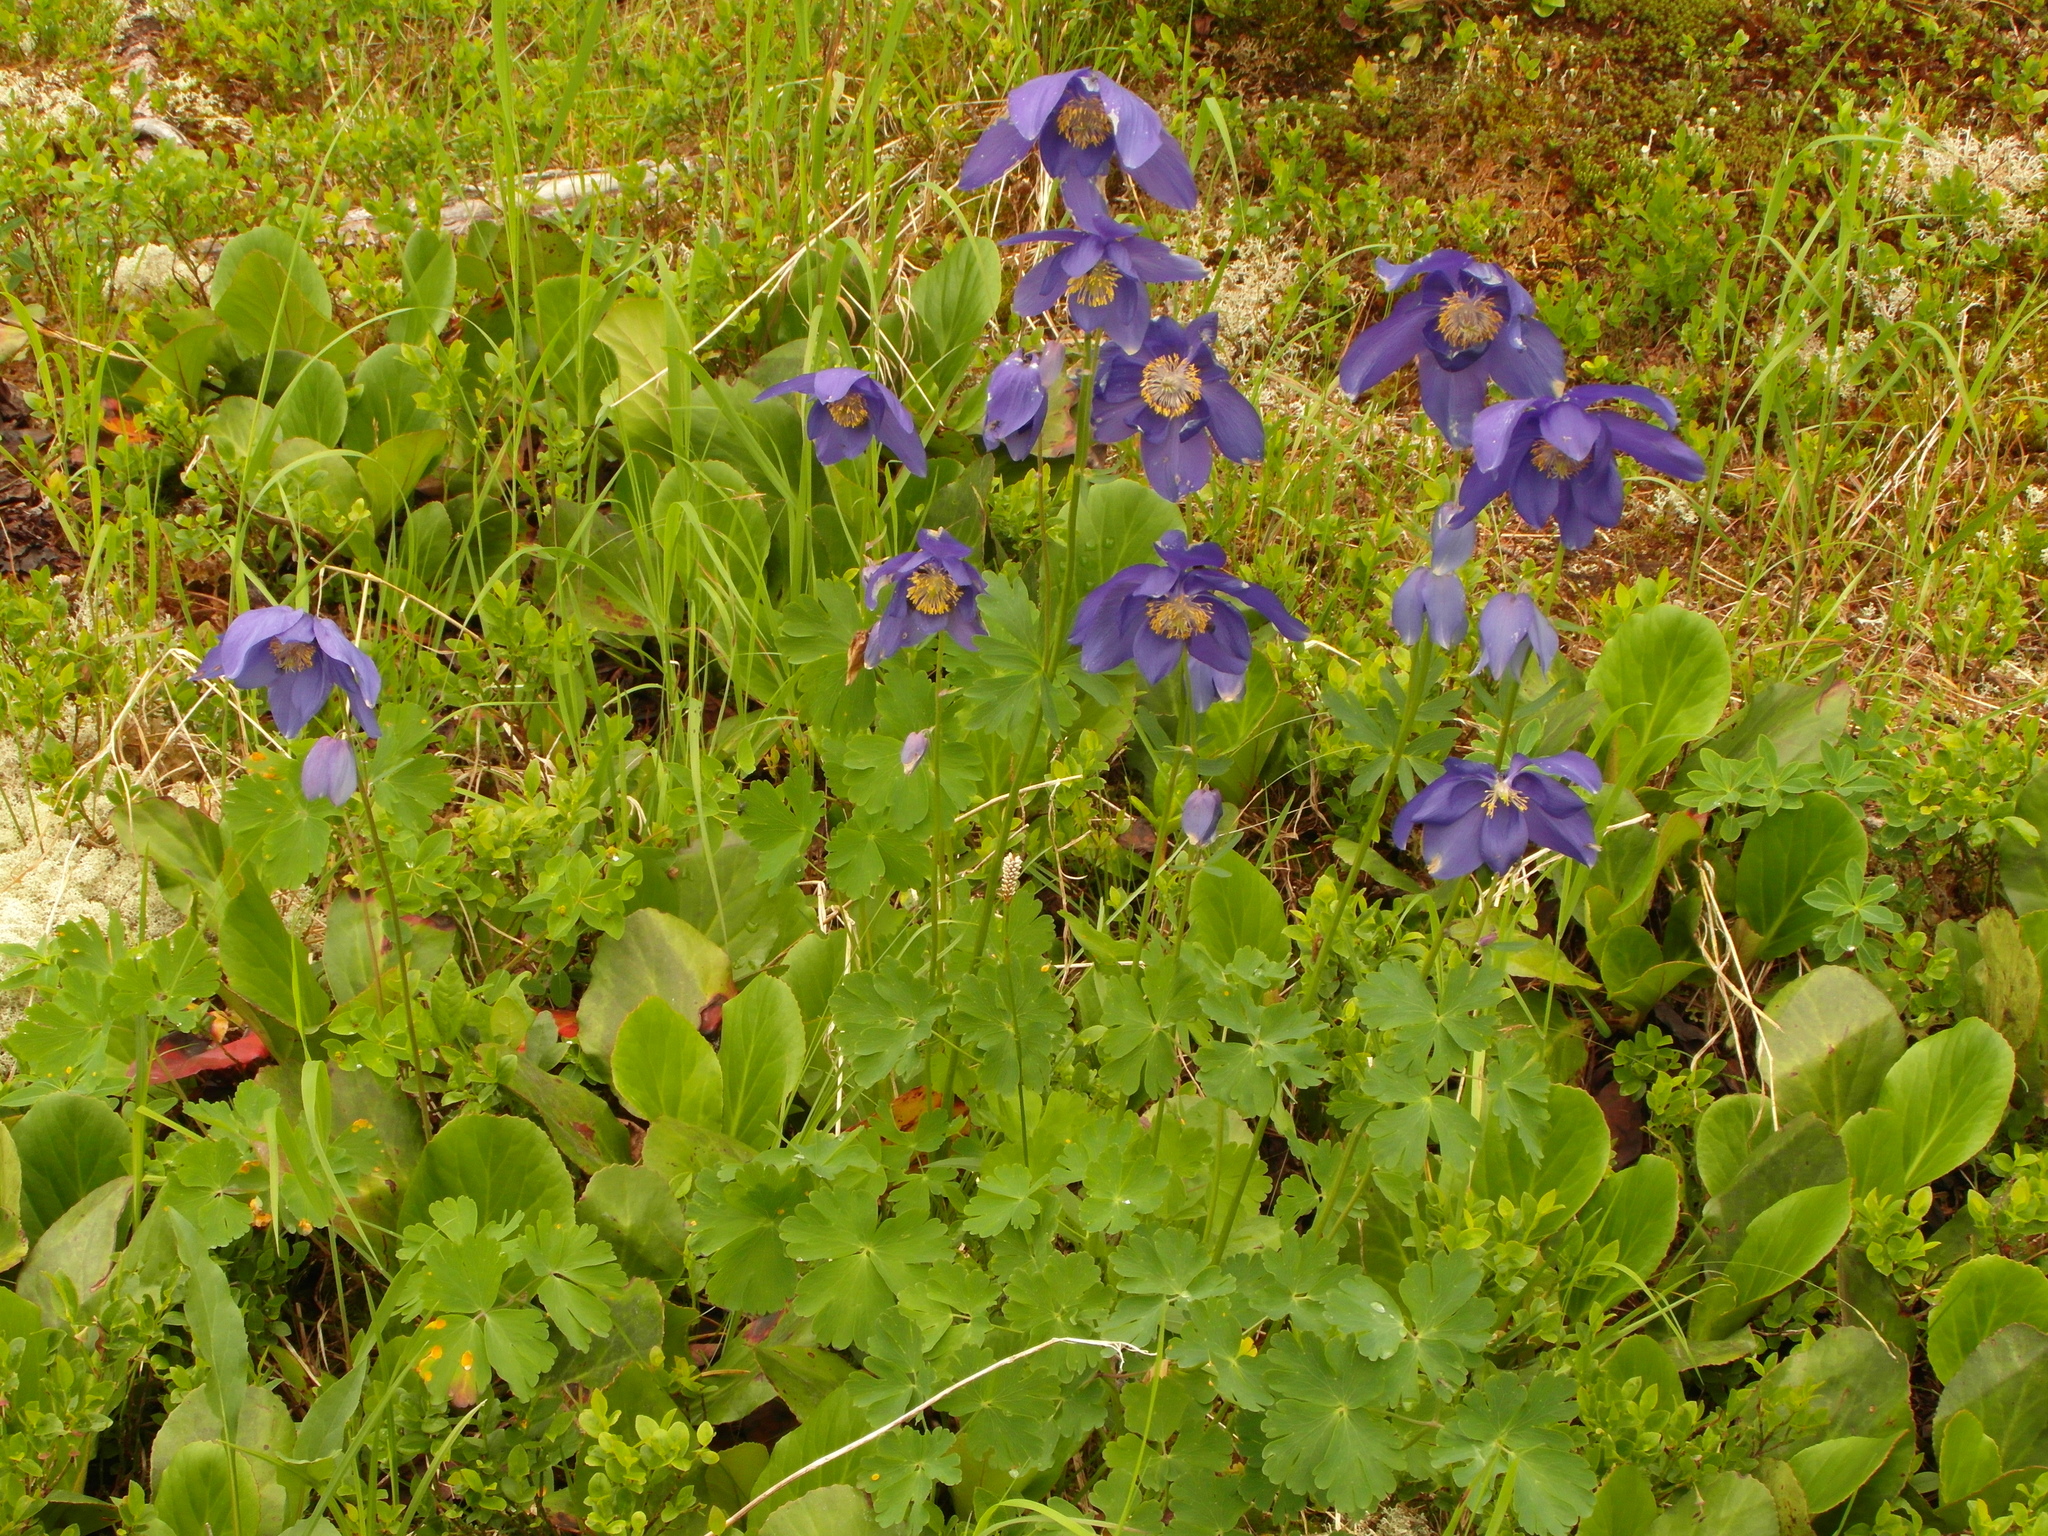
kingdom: Plantae
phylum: Tracheophyta
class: Magnoliopsida
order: Ranunculales
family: Ranunculaceae
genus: Aquilegia
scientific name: Aquilegia glandulosa
